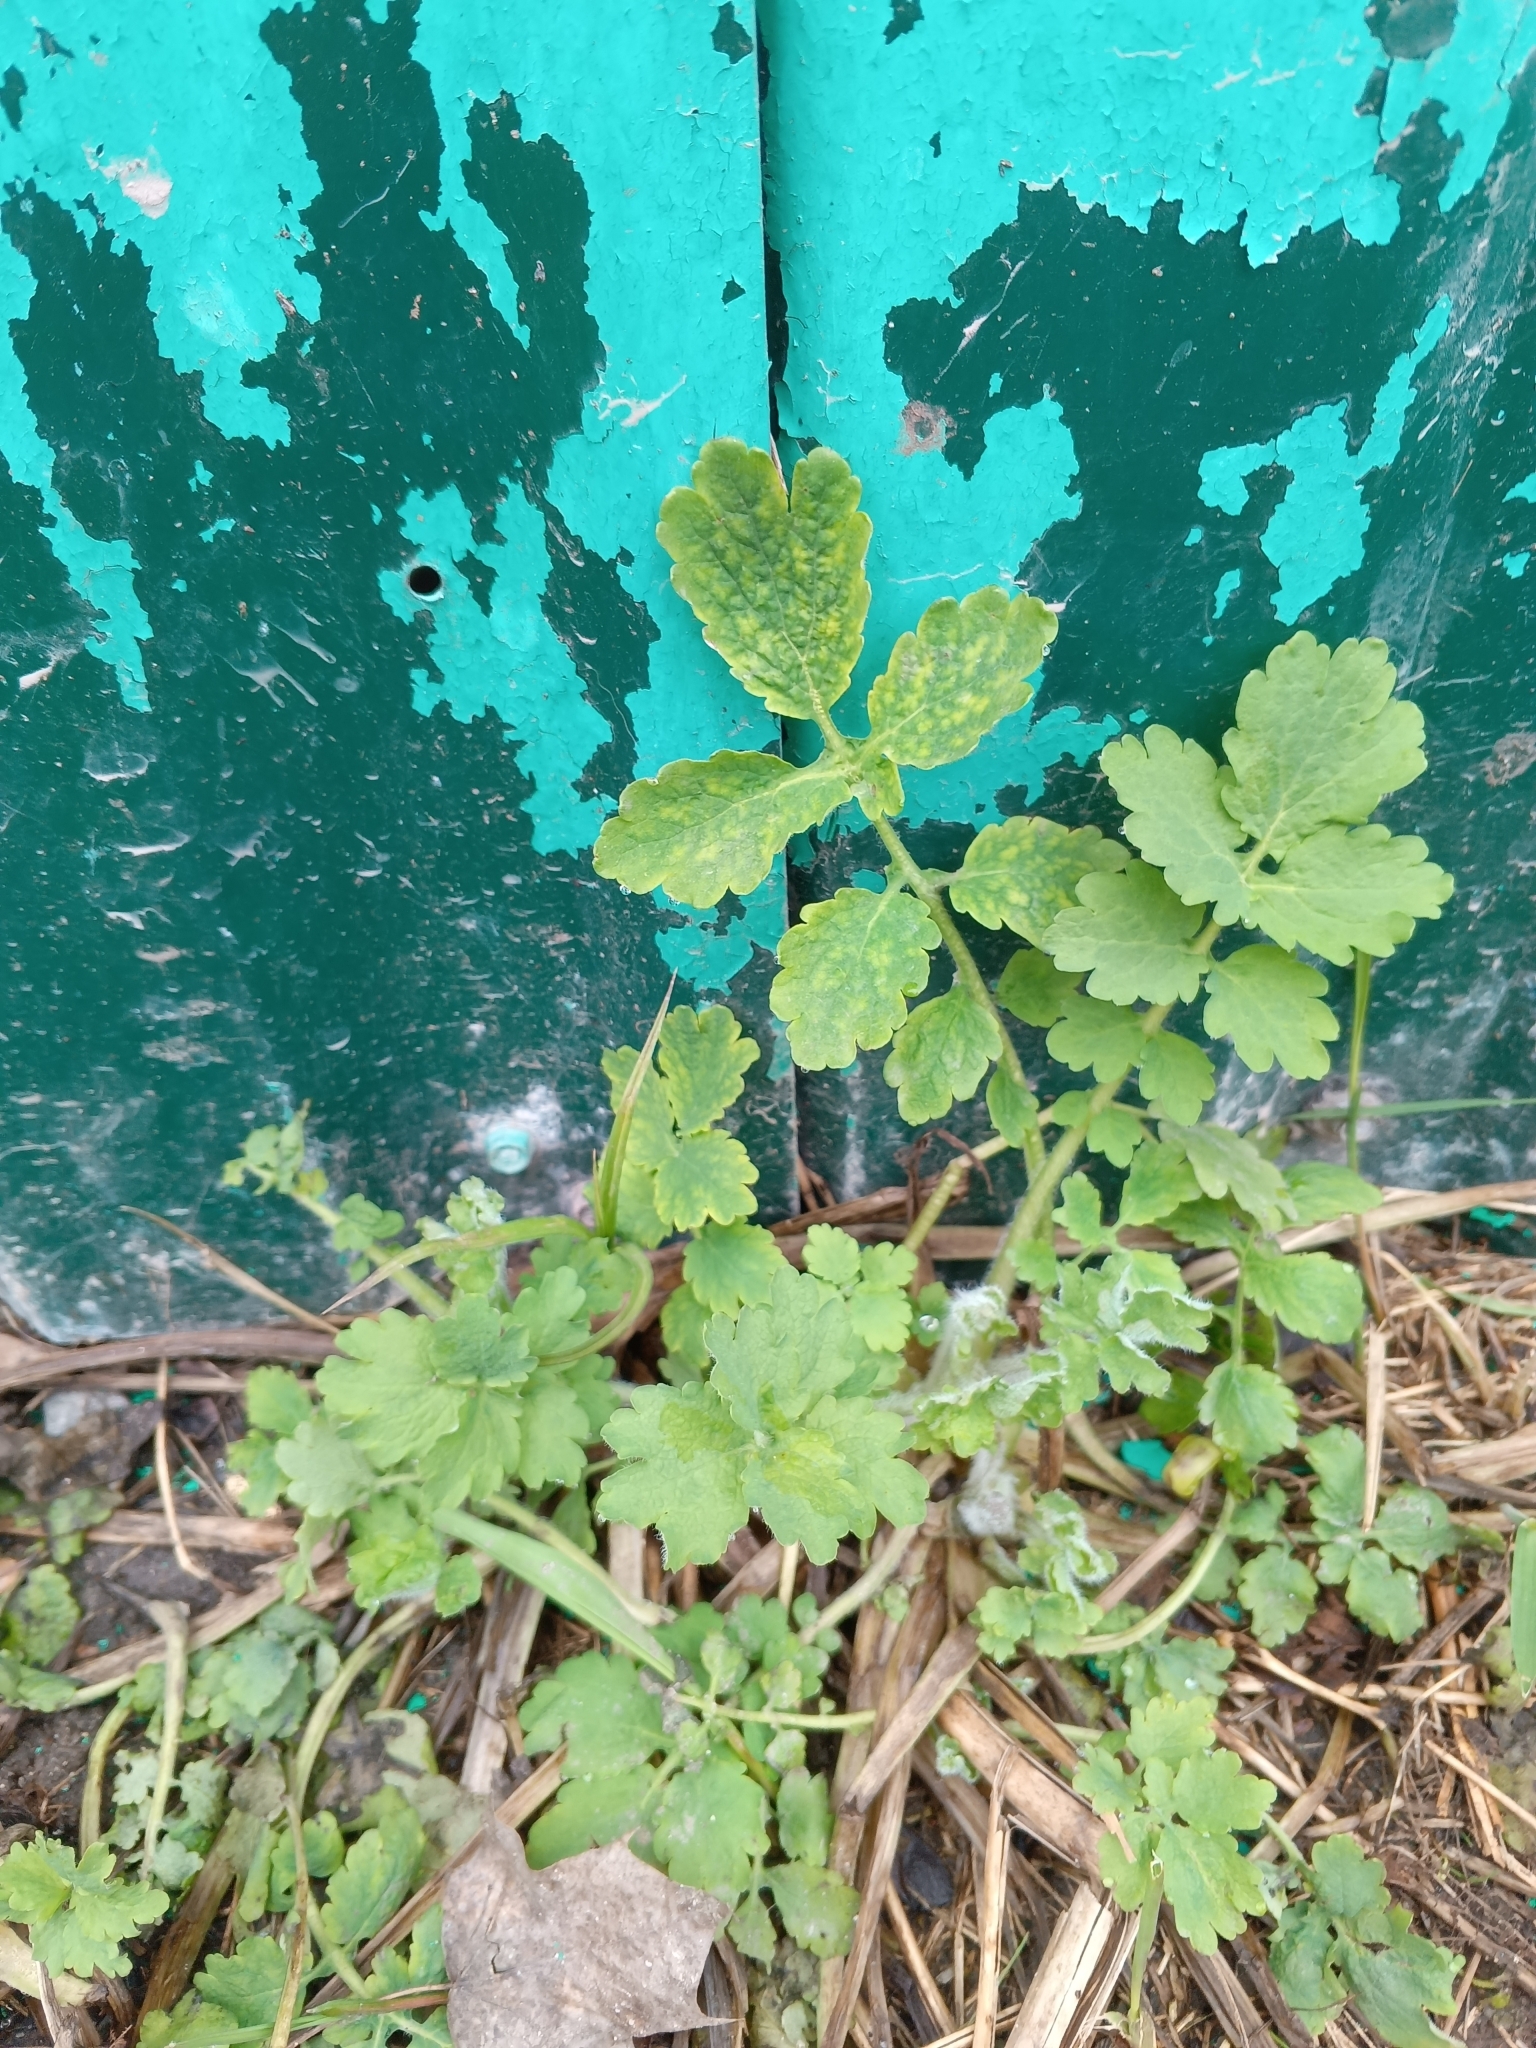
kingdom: Plantae
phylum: Tracheophyta
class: Magnoliopsida
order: Ranunculales
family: Papaveraceae
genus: Chelidonium
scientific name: Chelidonium majus
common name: Greater celandine
